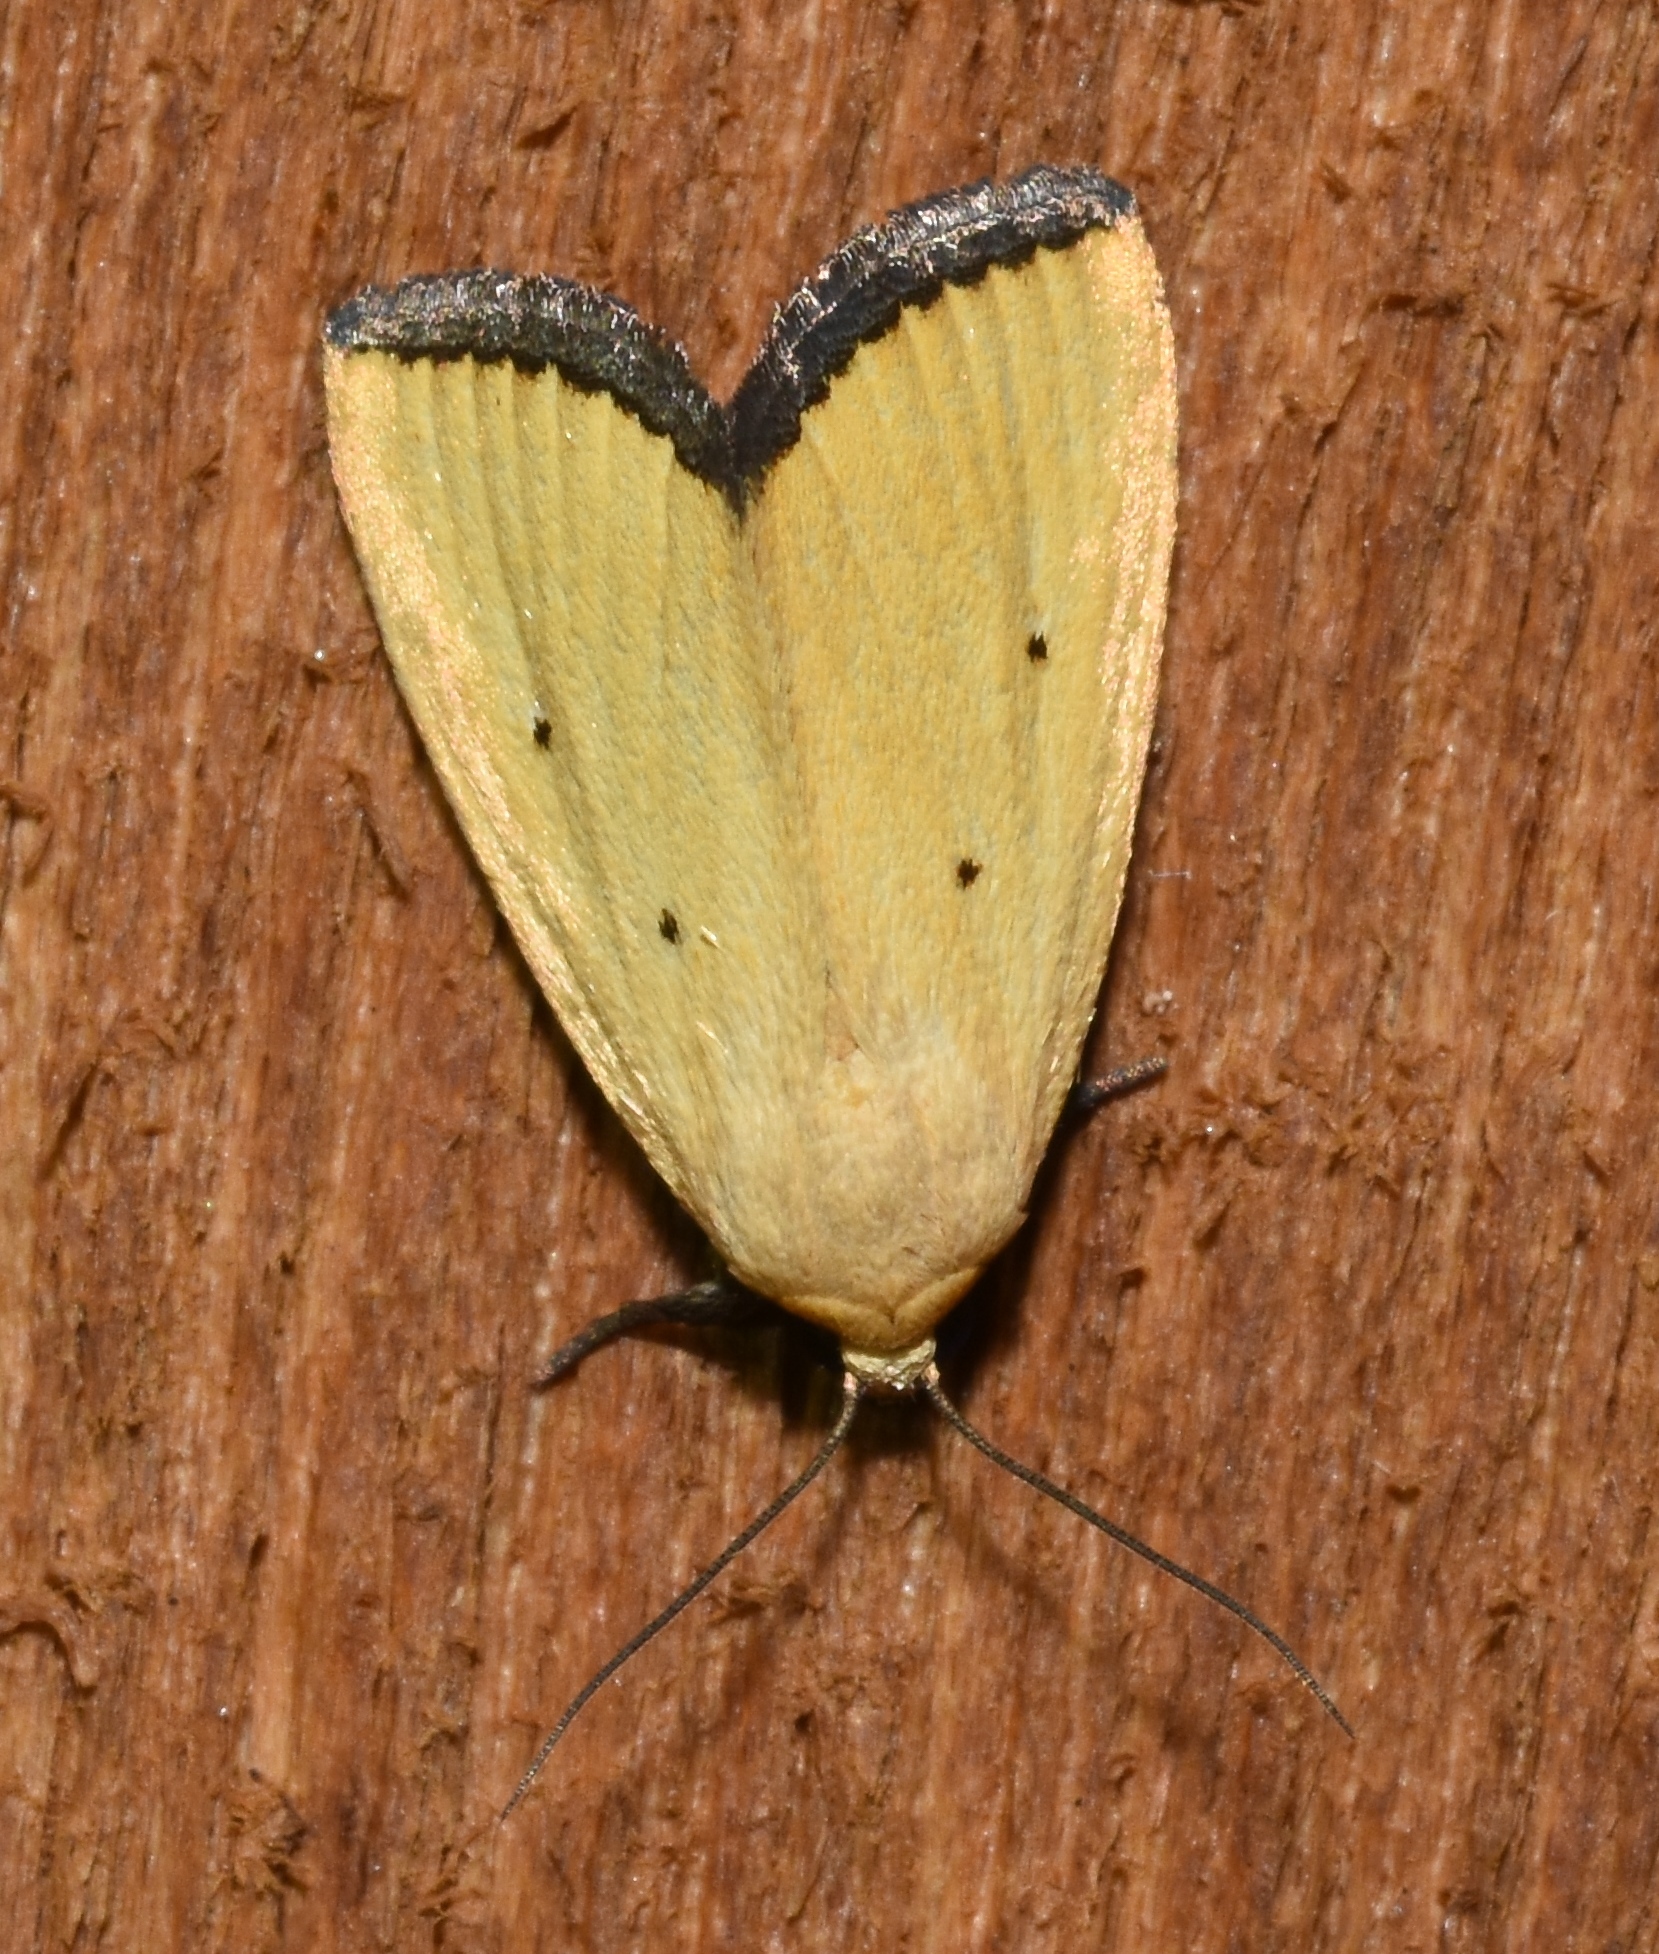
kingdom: Animalia
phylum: Arthropoda
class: Insecta
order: Lepidoptera
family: Noctuidae
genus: Marimatha
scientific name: Marimatha nigrofimbria
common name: Black-bordered lemon moth
